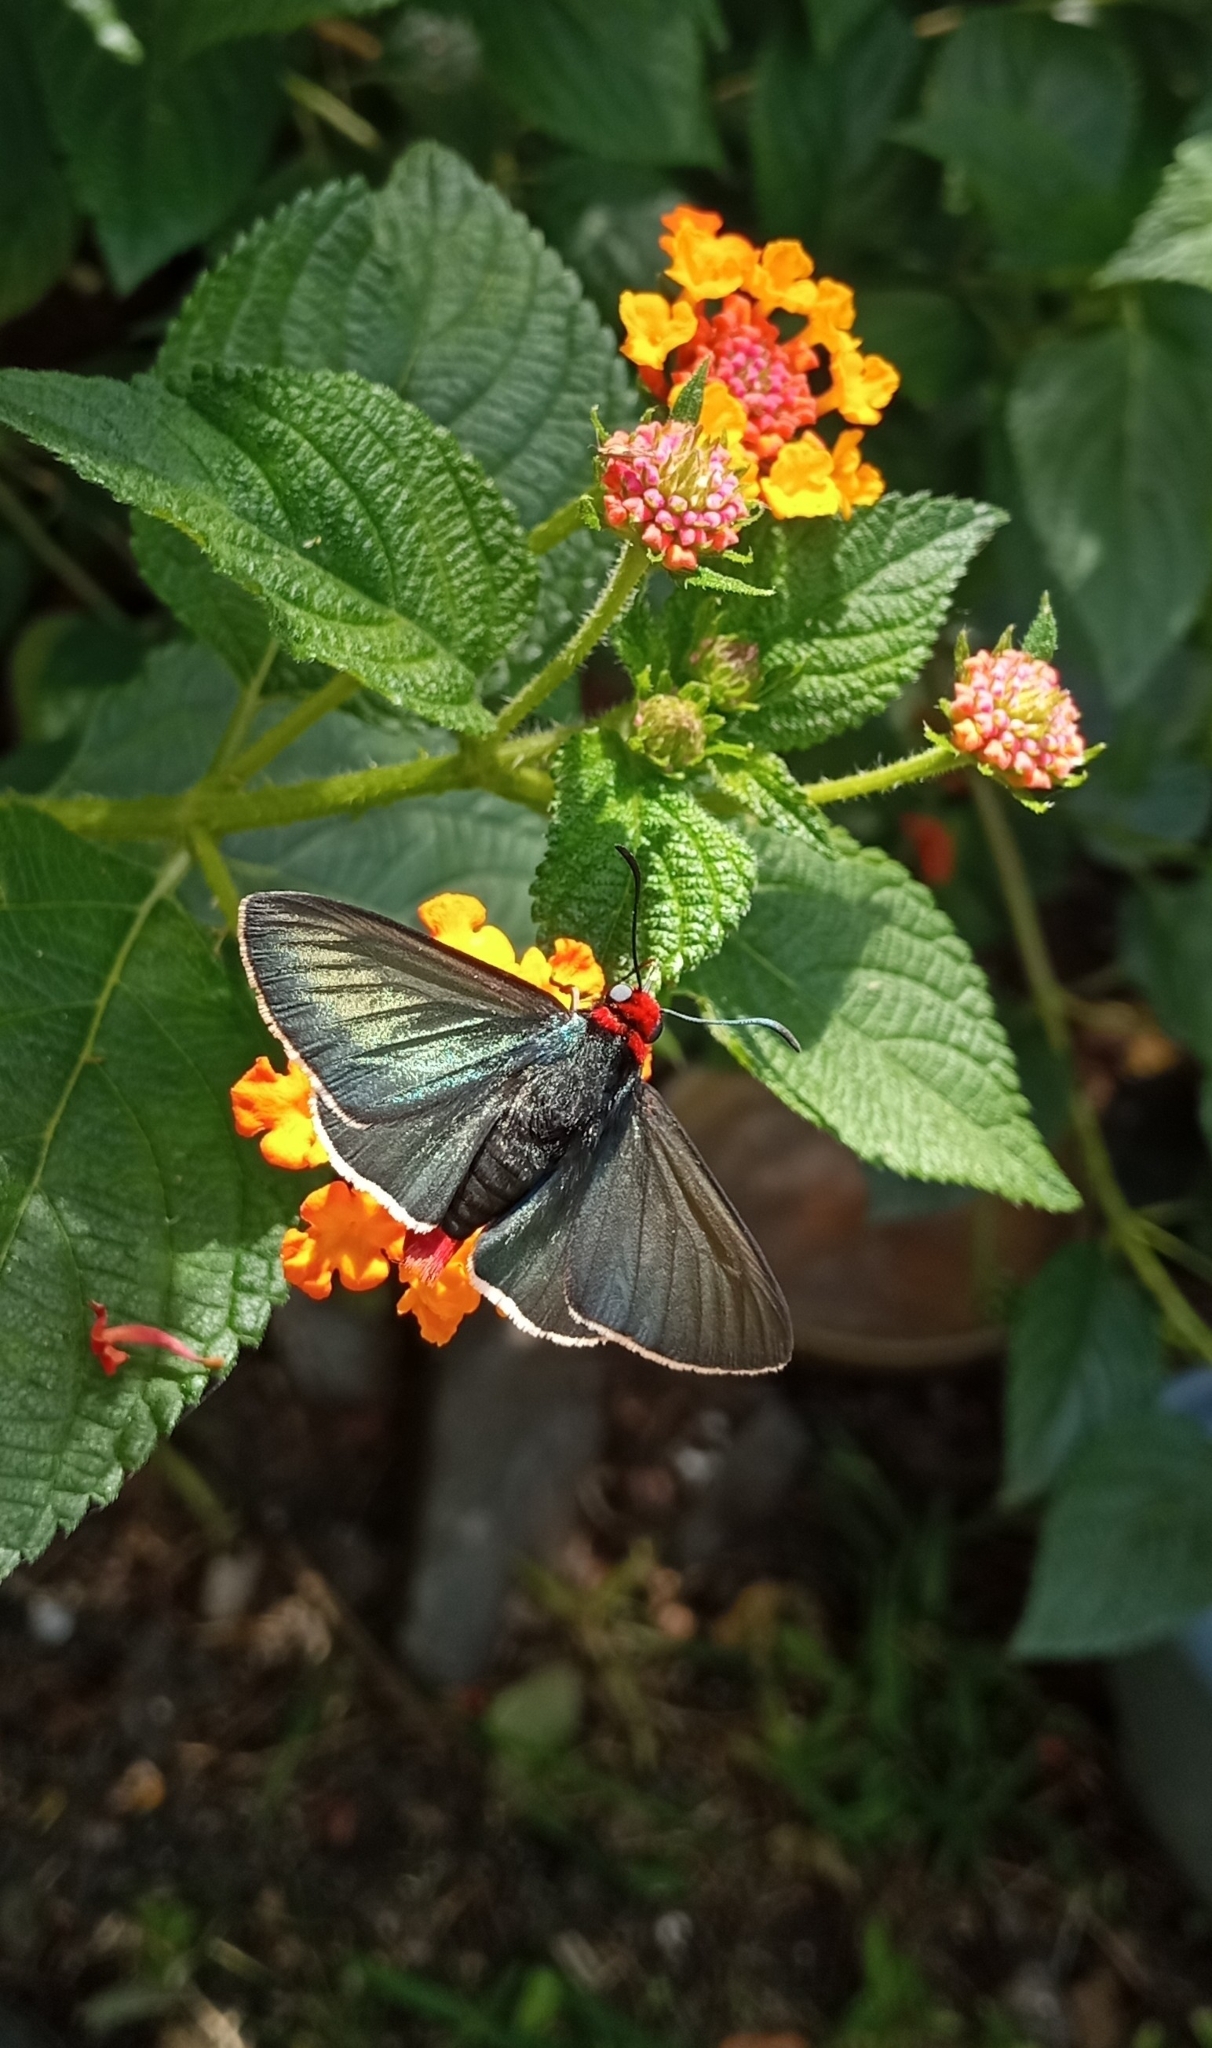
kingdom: Animalia
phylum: Arthropoda
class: Insecta
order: Lepidoptera
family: Hesperiidae
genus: Pyrrhopyge
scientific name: Pyrrhopyge charybdis
